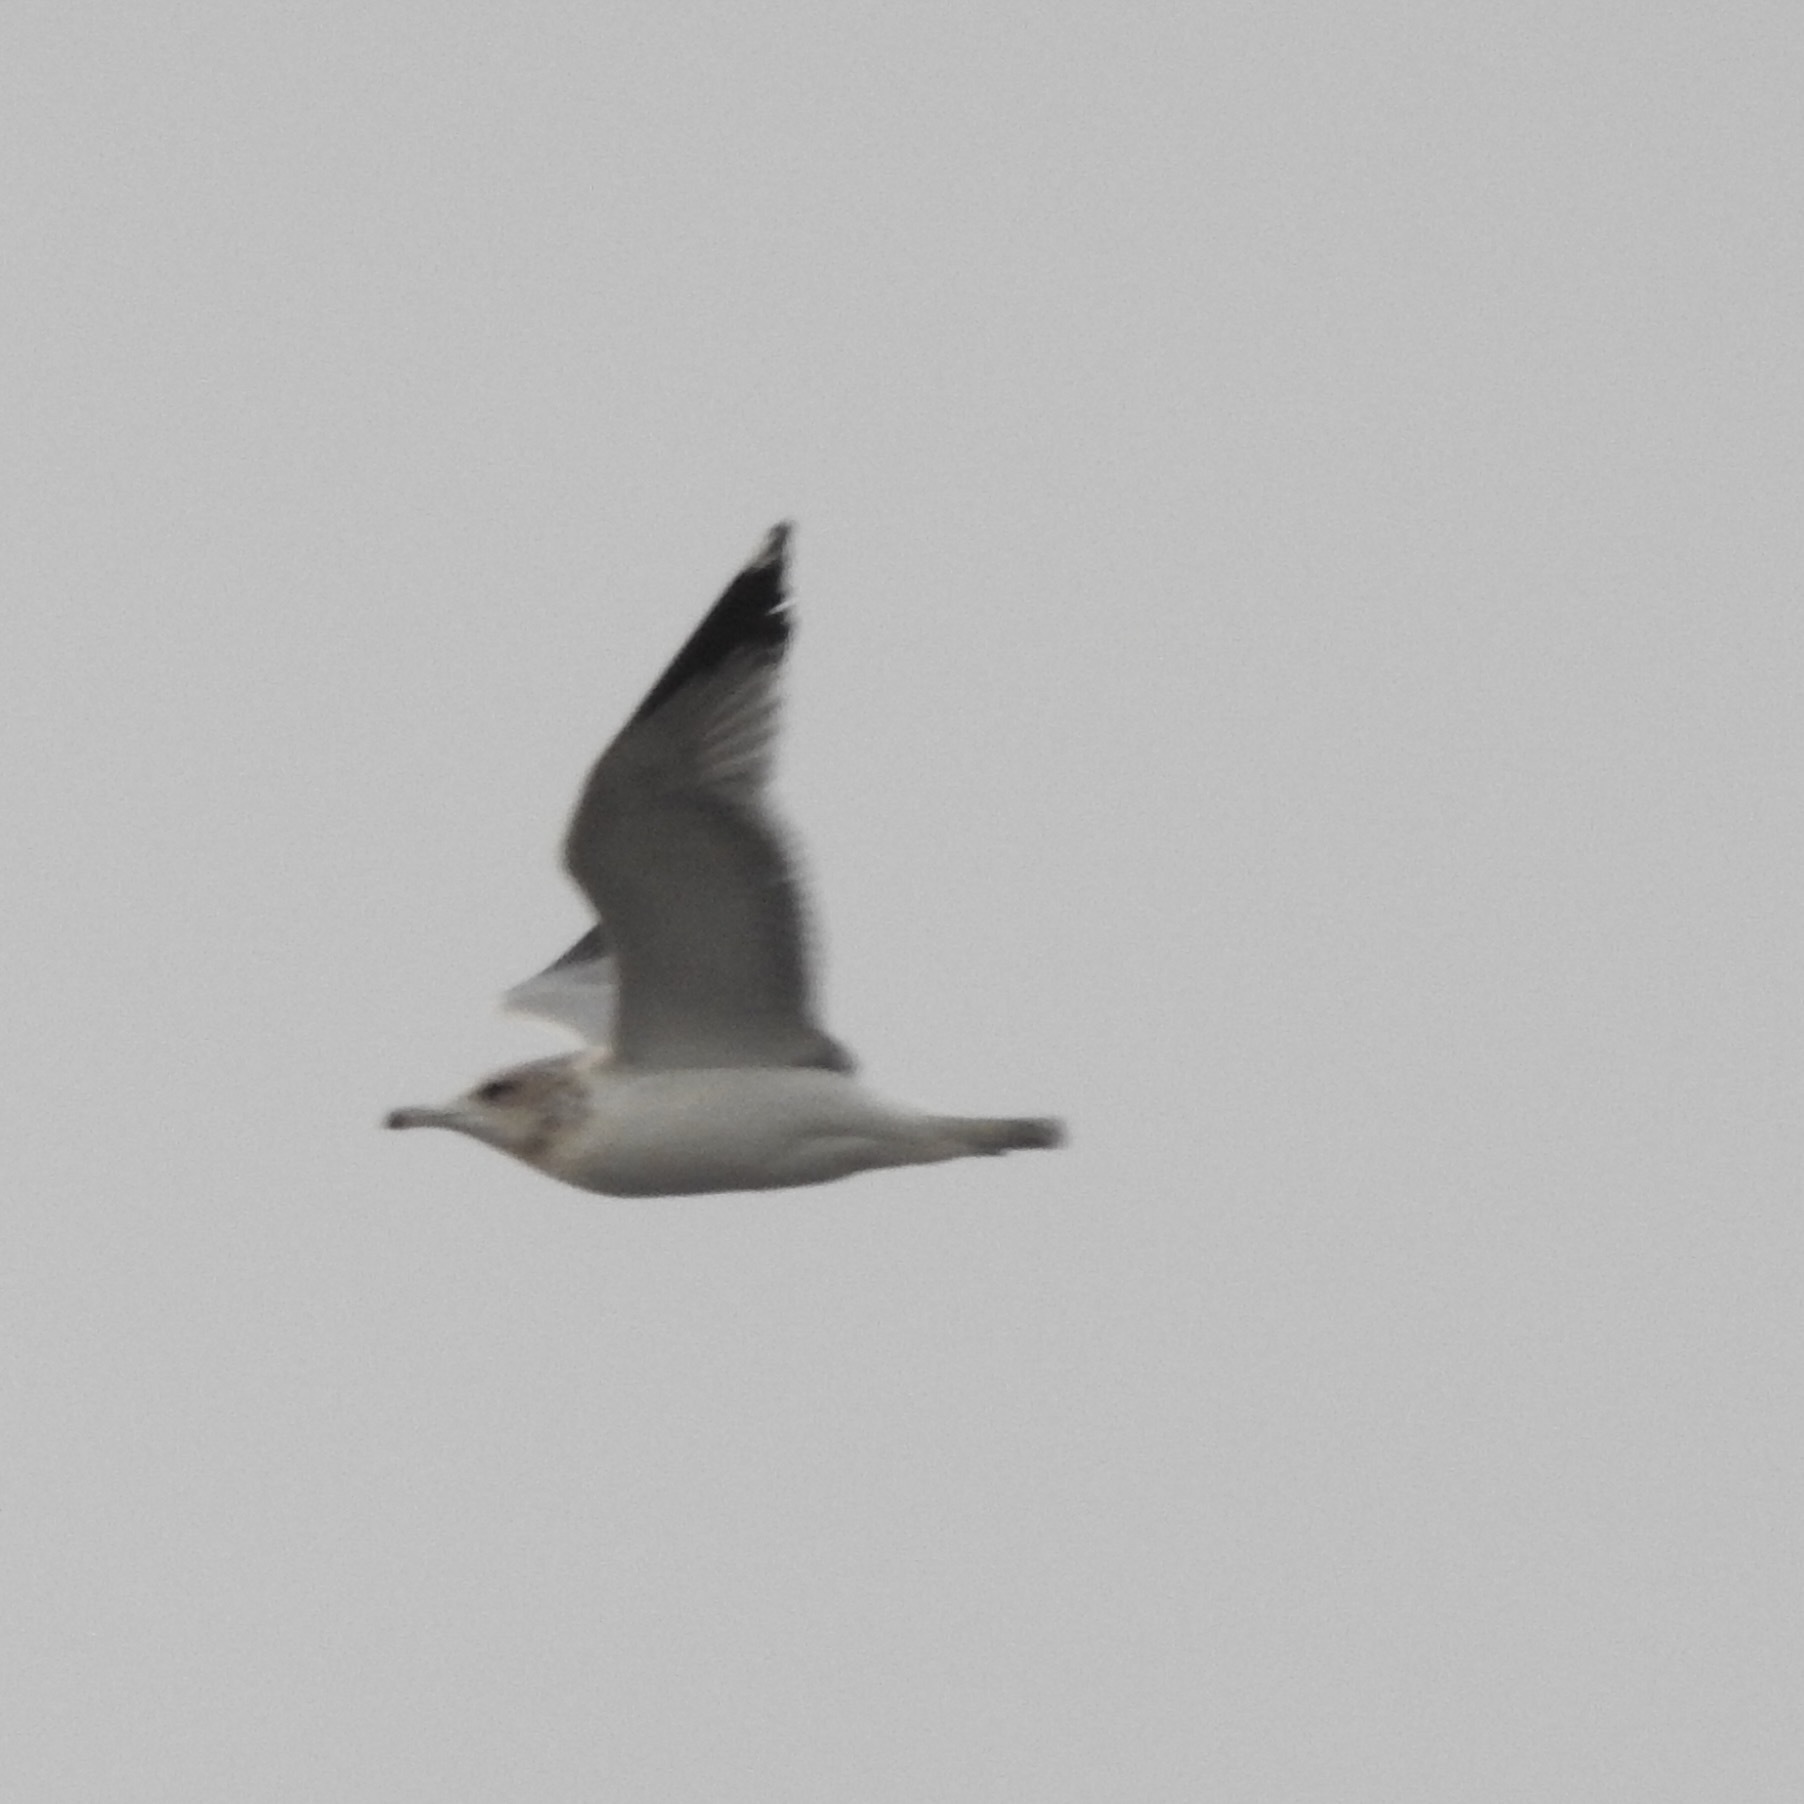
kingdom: Animalia
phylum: Chordata
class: Aves
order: Charadriiformes
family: Laridae
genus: Larus
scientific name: Larus delawarensis
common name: Ring-billed gull
